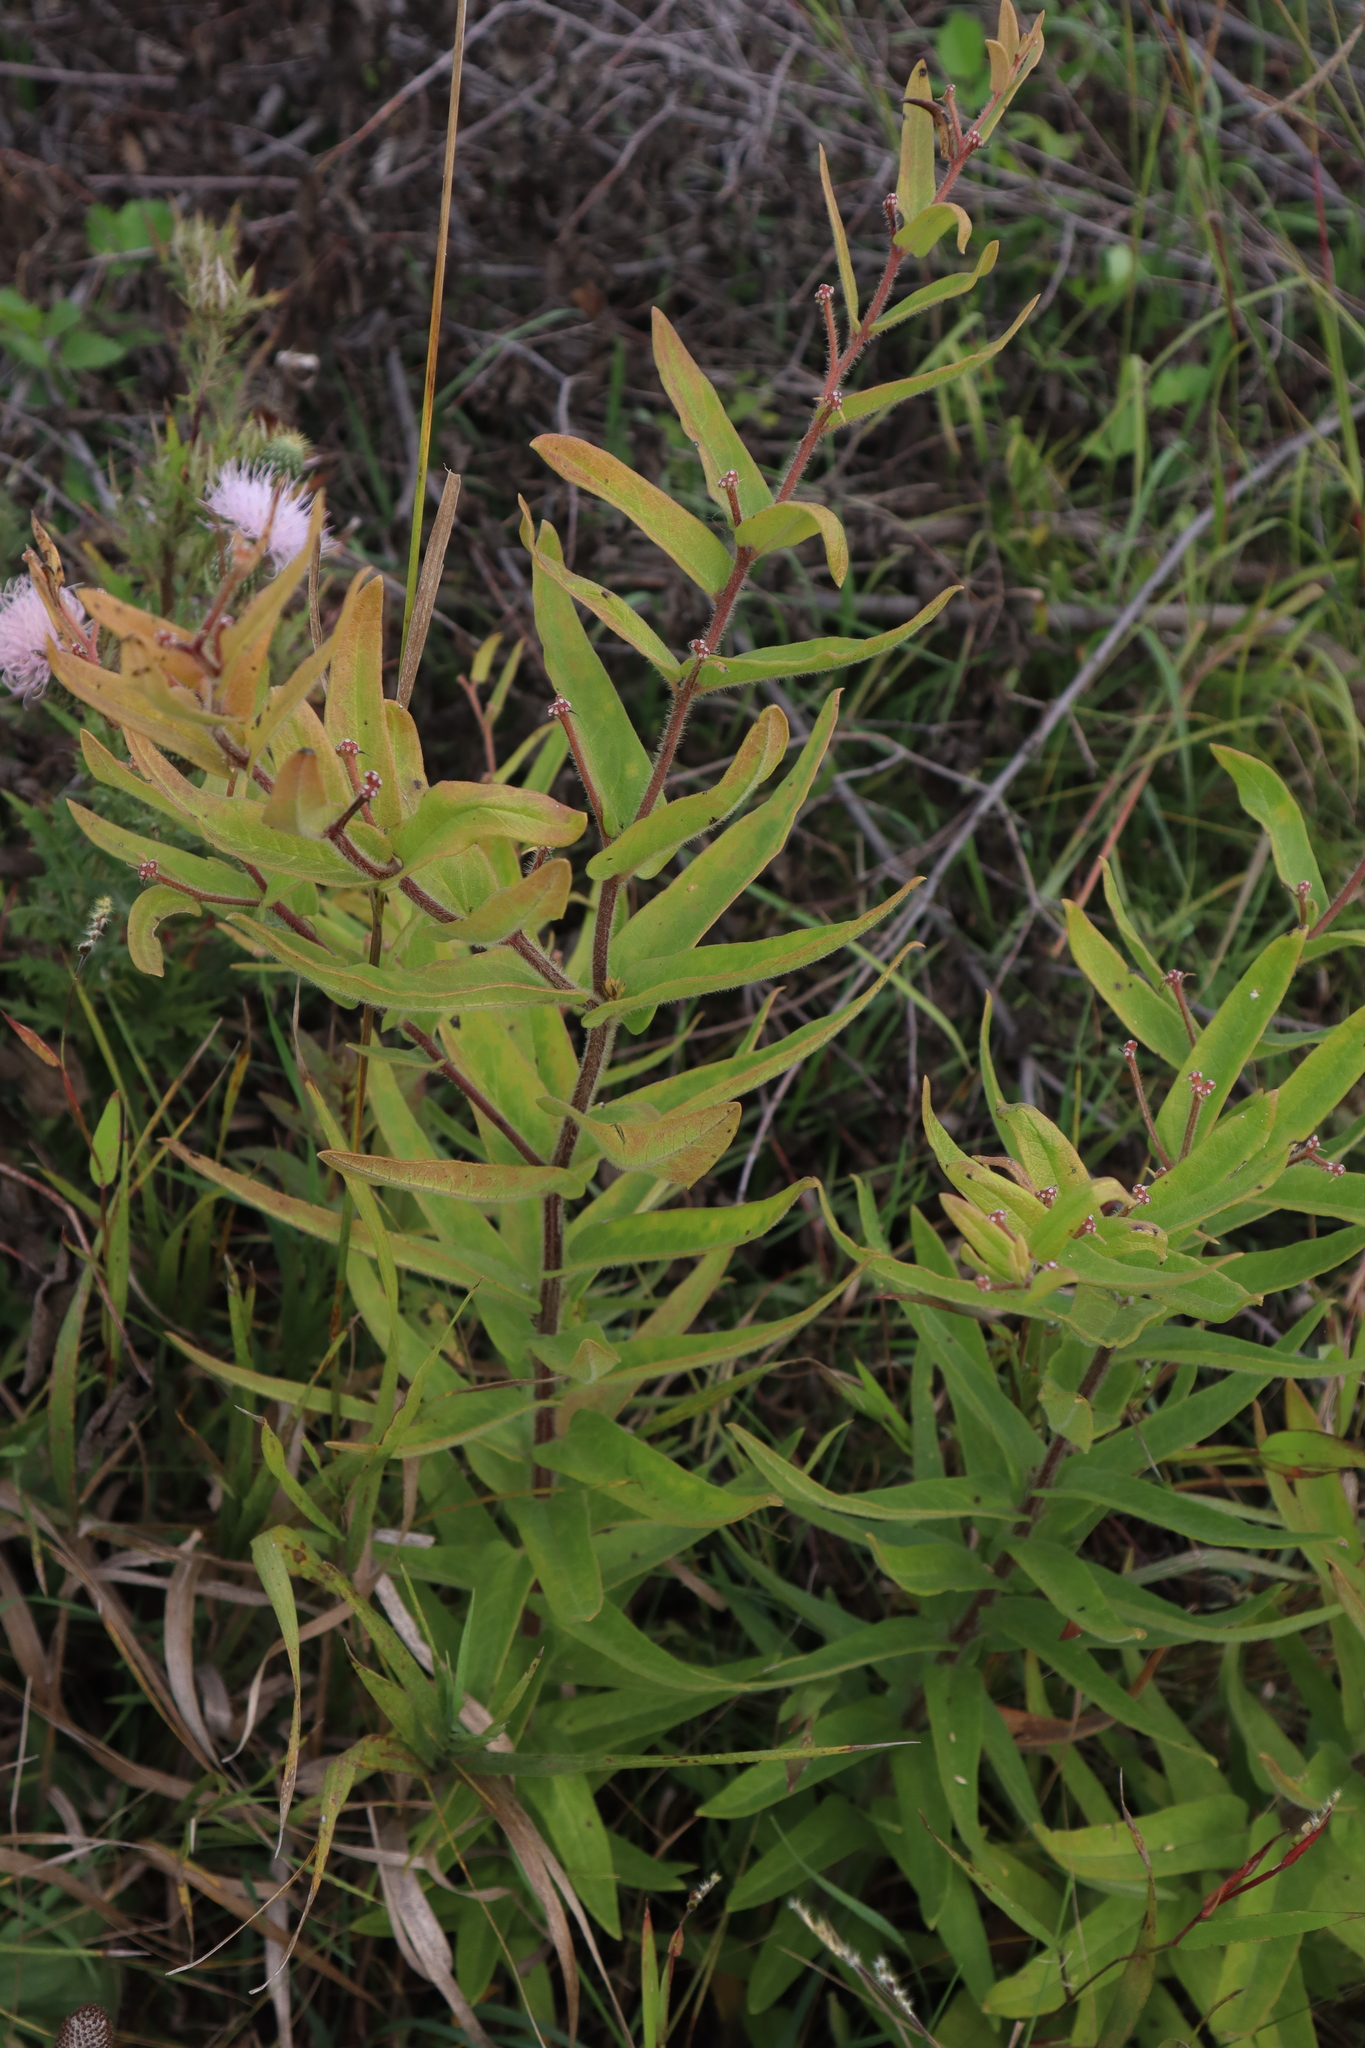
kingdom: Plantae
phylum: Tracheophyta
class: Magnoliopsida
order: Gentianales
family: Apocynaceae
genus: Asclepias
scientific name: Asclepias tuberosa
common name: Butterfly milkweed
